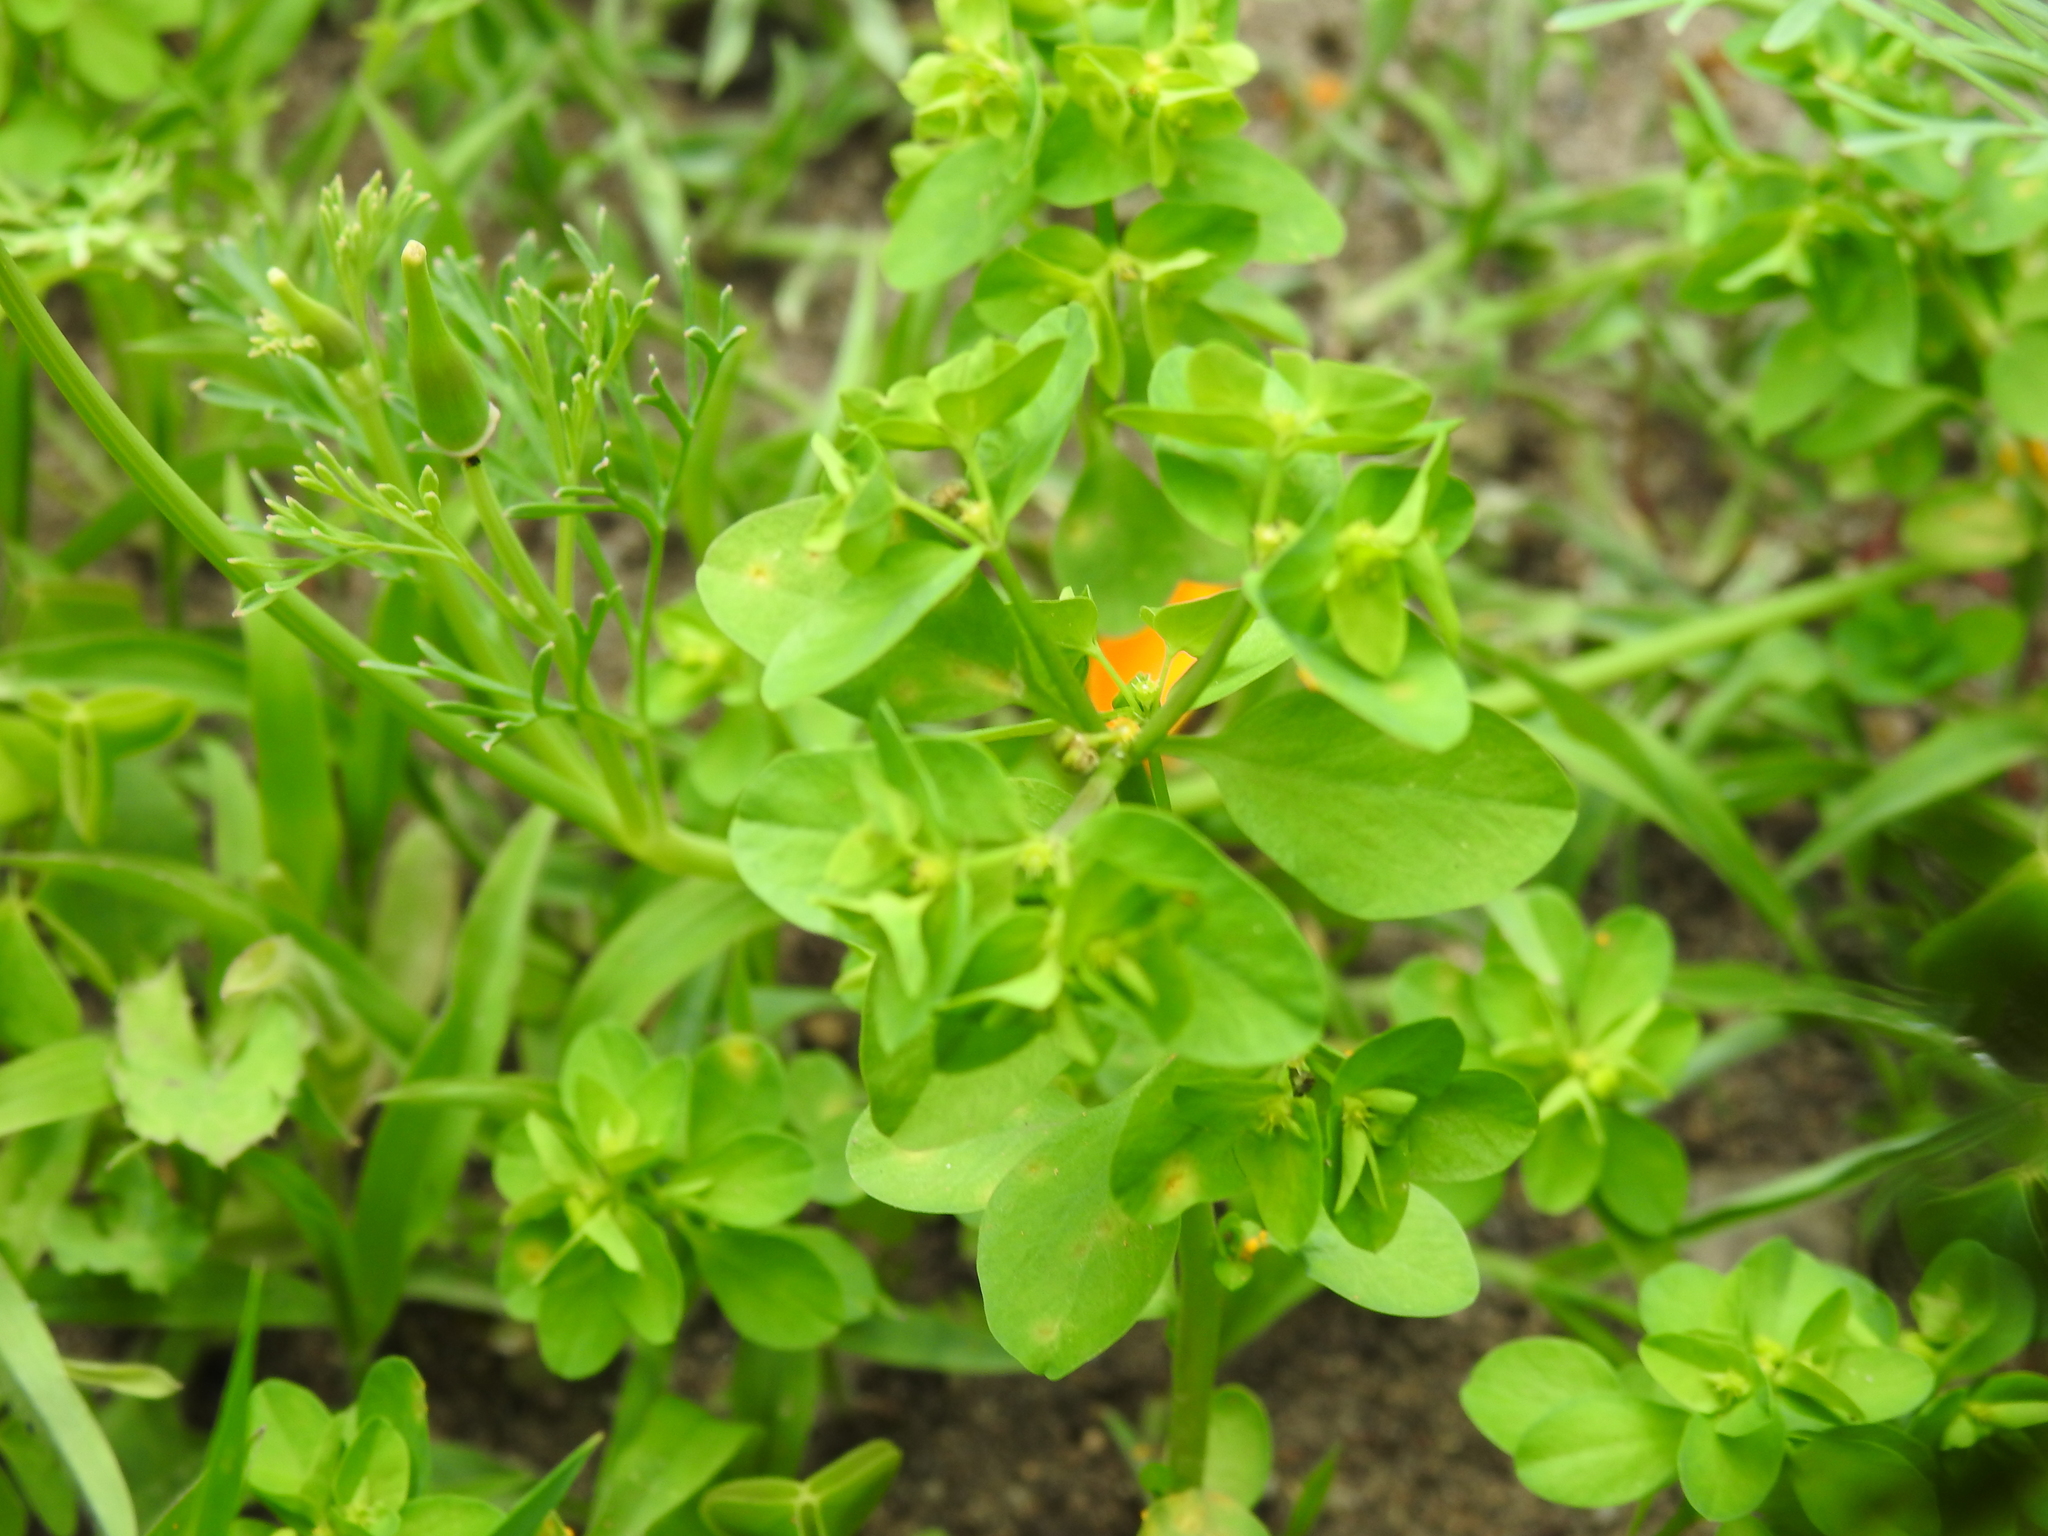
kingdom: Plantae
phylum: Tracheophyta
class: Magnoliopsida
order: Malpighiales
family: Euphorbiaceae
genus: Euphorbia
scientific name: Euphorbia peplus
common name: Petty spurge
